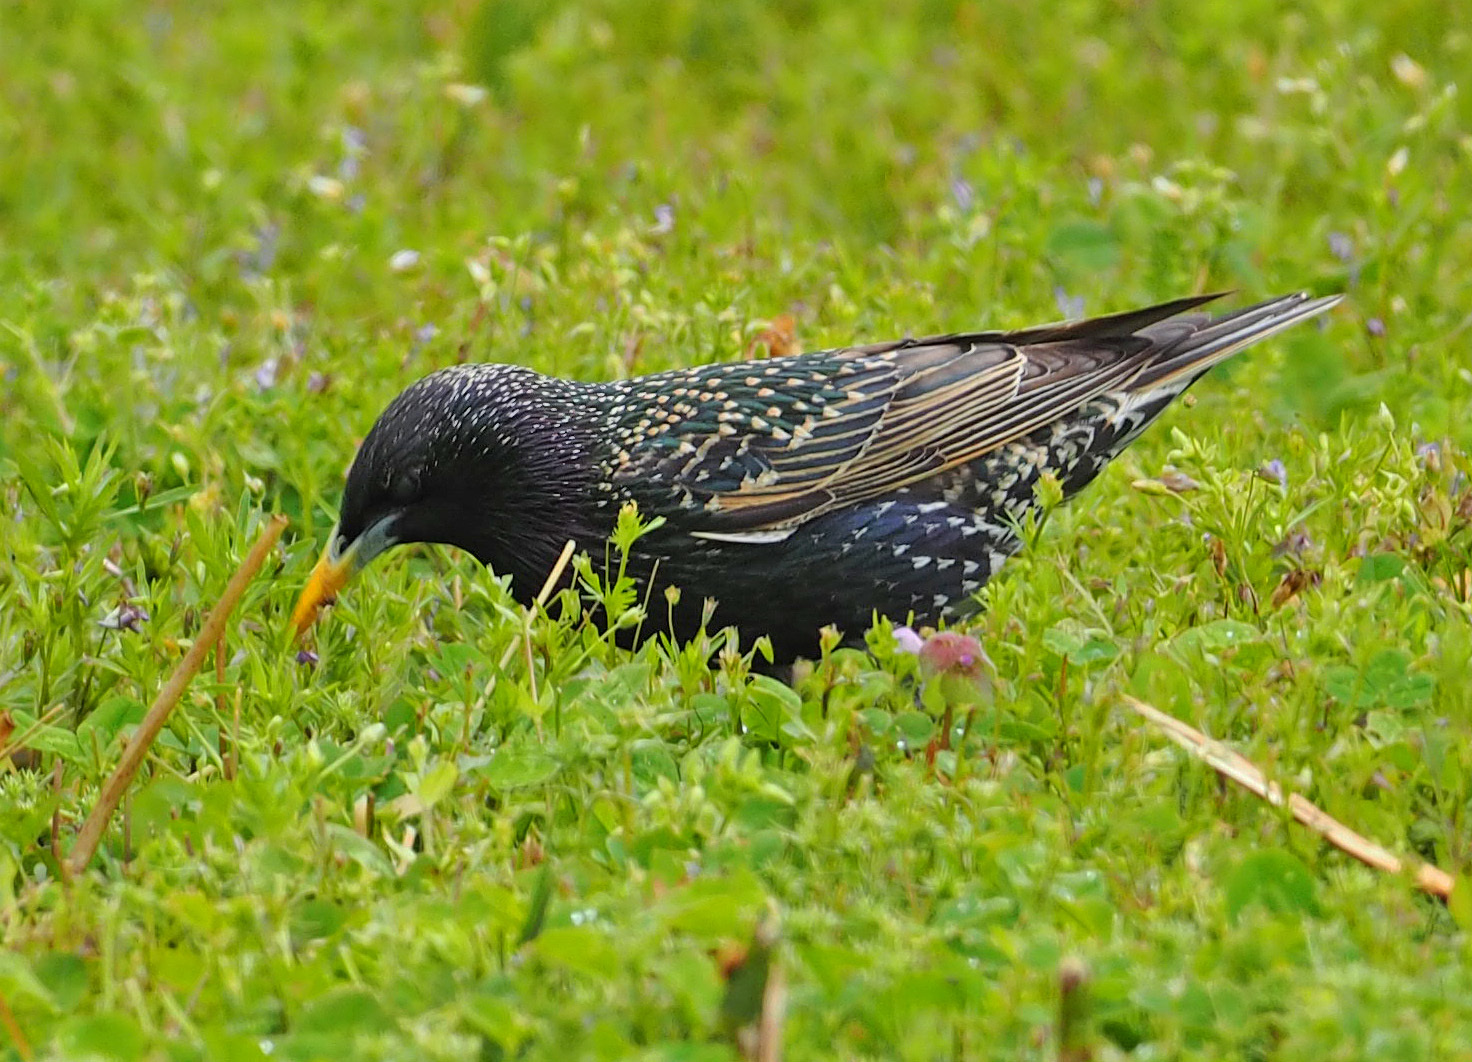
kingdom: Animalia
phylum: Chordata
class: Aves
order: Passeriformes
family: Sturnidae
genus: Sturnus
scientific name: Sturnus vulgaris
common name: Common starling
